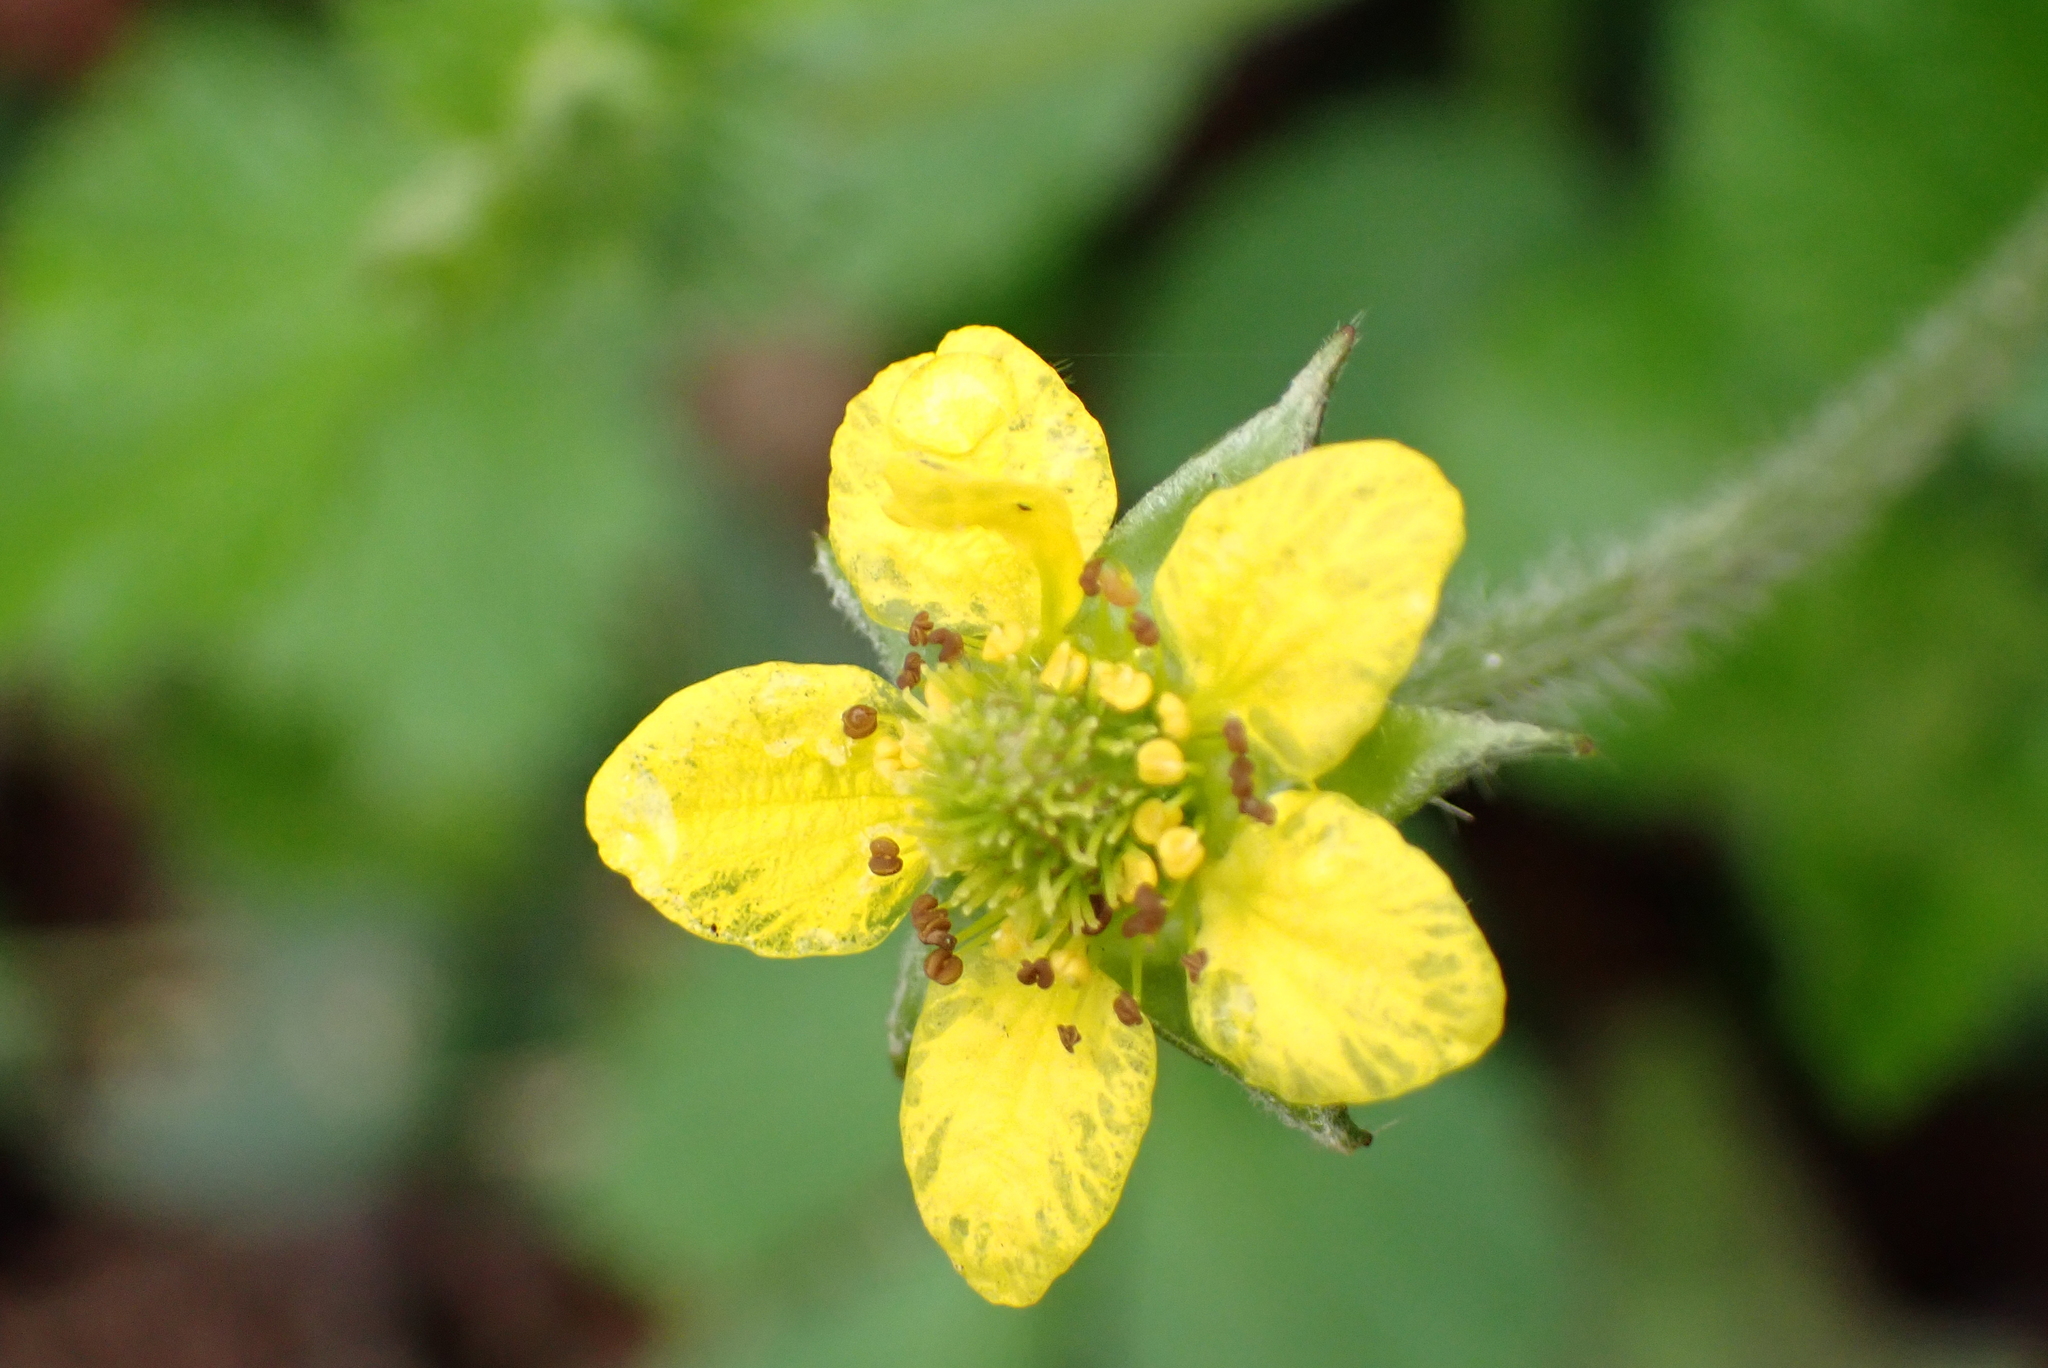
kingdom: Plantae
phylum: Tracheophyta
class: Magnoliopsida
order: Rosales
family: Rosaceae
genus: Geum
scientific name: Geum urbanum
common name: Wood avens
